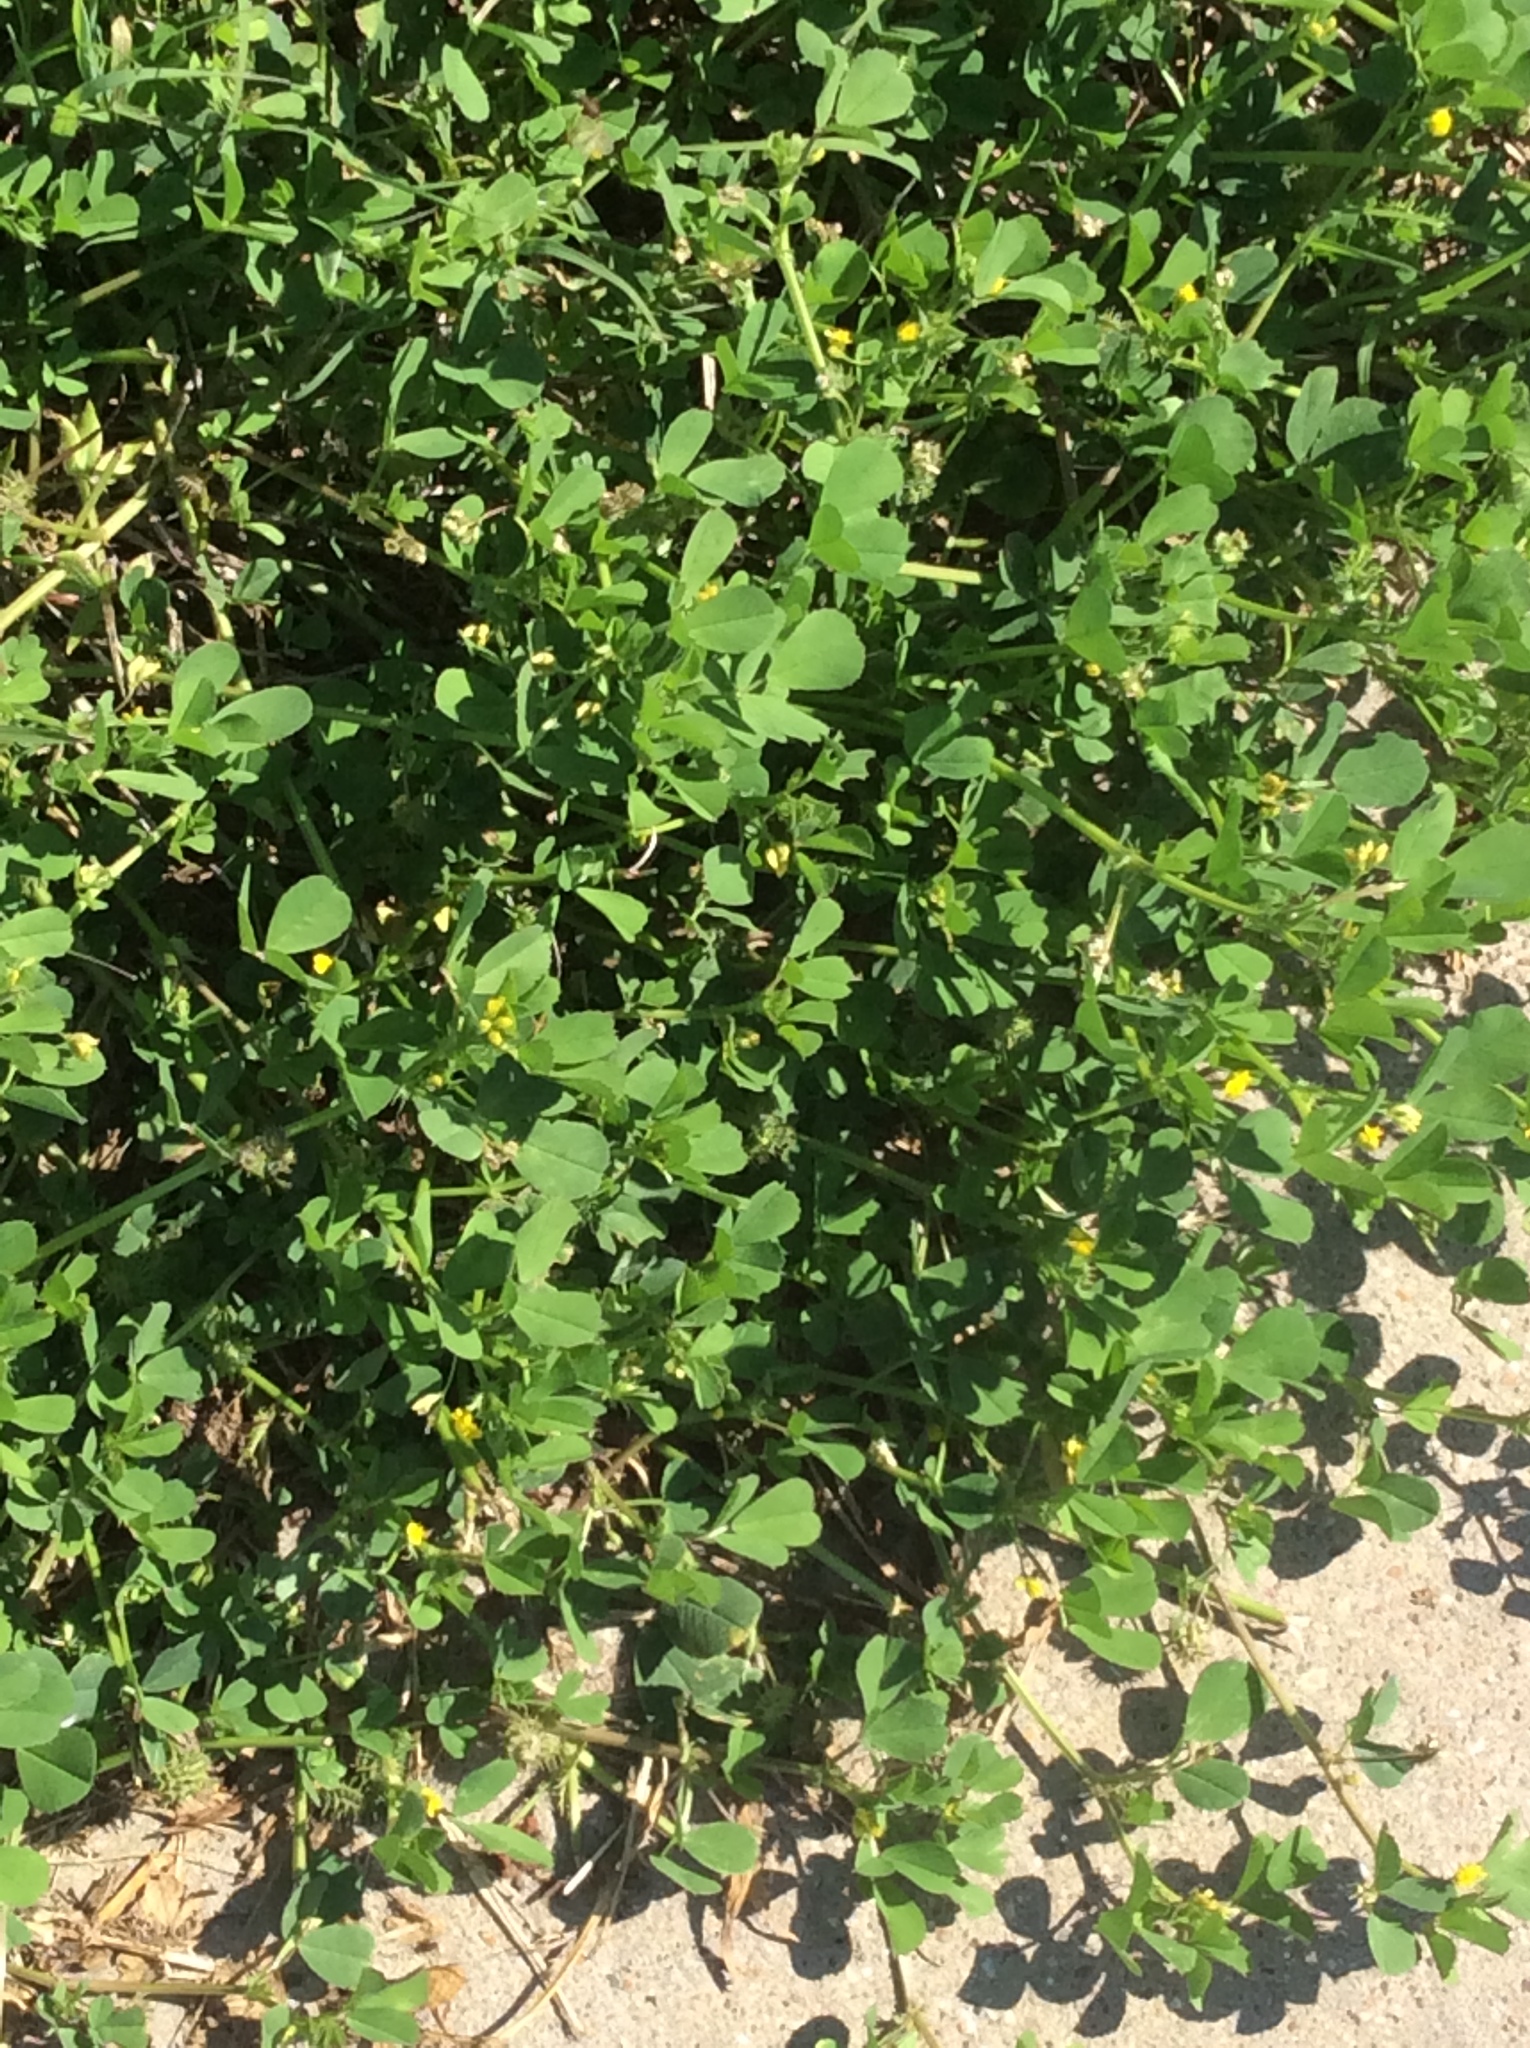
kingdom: Plantae
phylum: Tracheophyta
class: Magnoliopsida
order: Fabales
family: Fabaceae
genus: Medicago
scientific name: Medicago polymorpha
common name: Burclover
